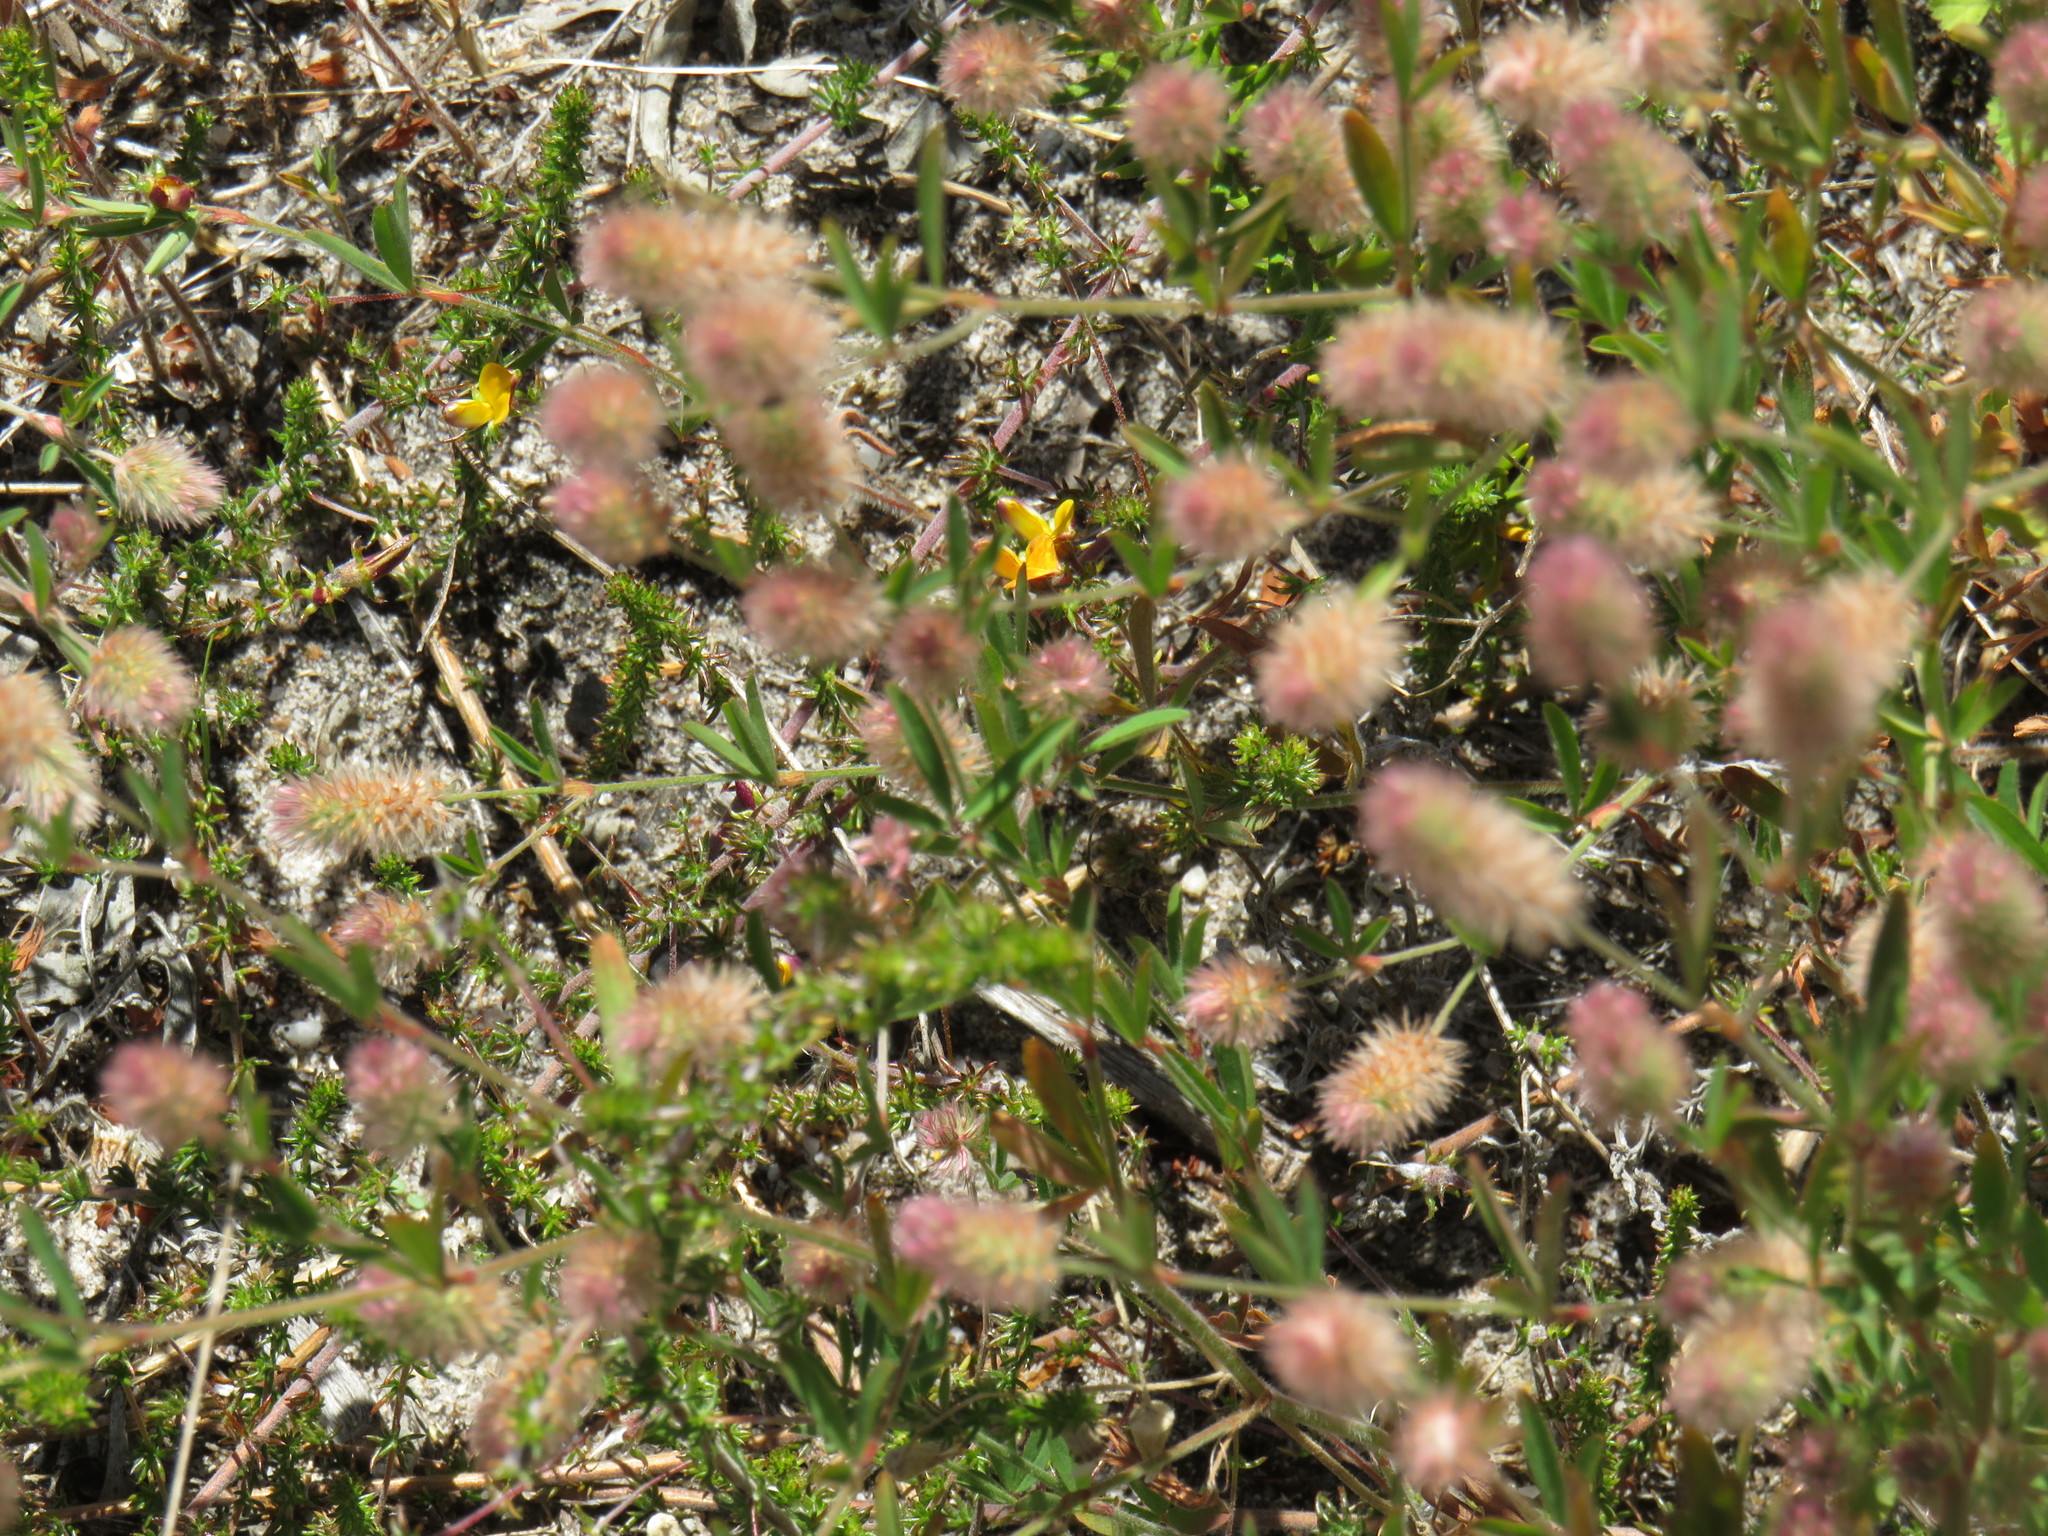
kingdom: Plantae
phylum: Tracheophyta
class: Magnoliopsida
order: Fabales
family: Fabaceae
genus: Aspalathus
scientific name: Aspalathus retroflexa
